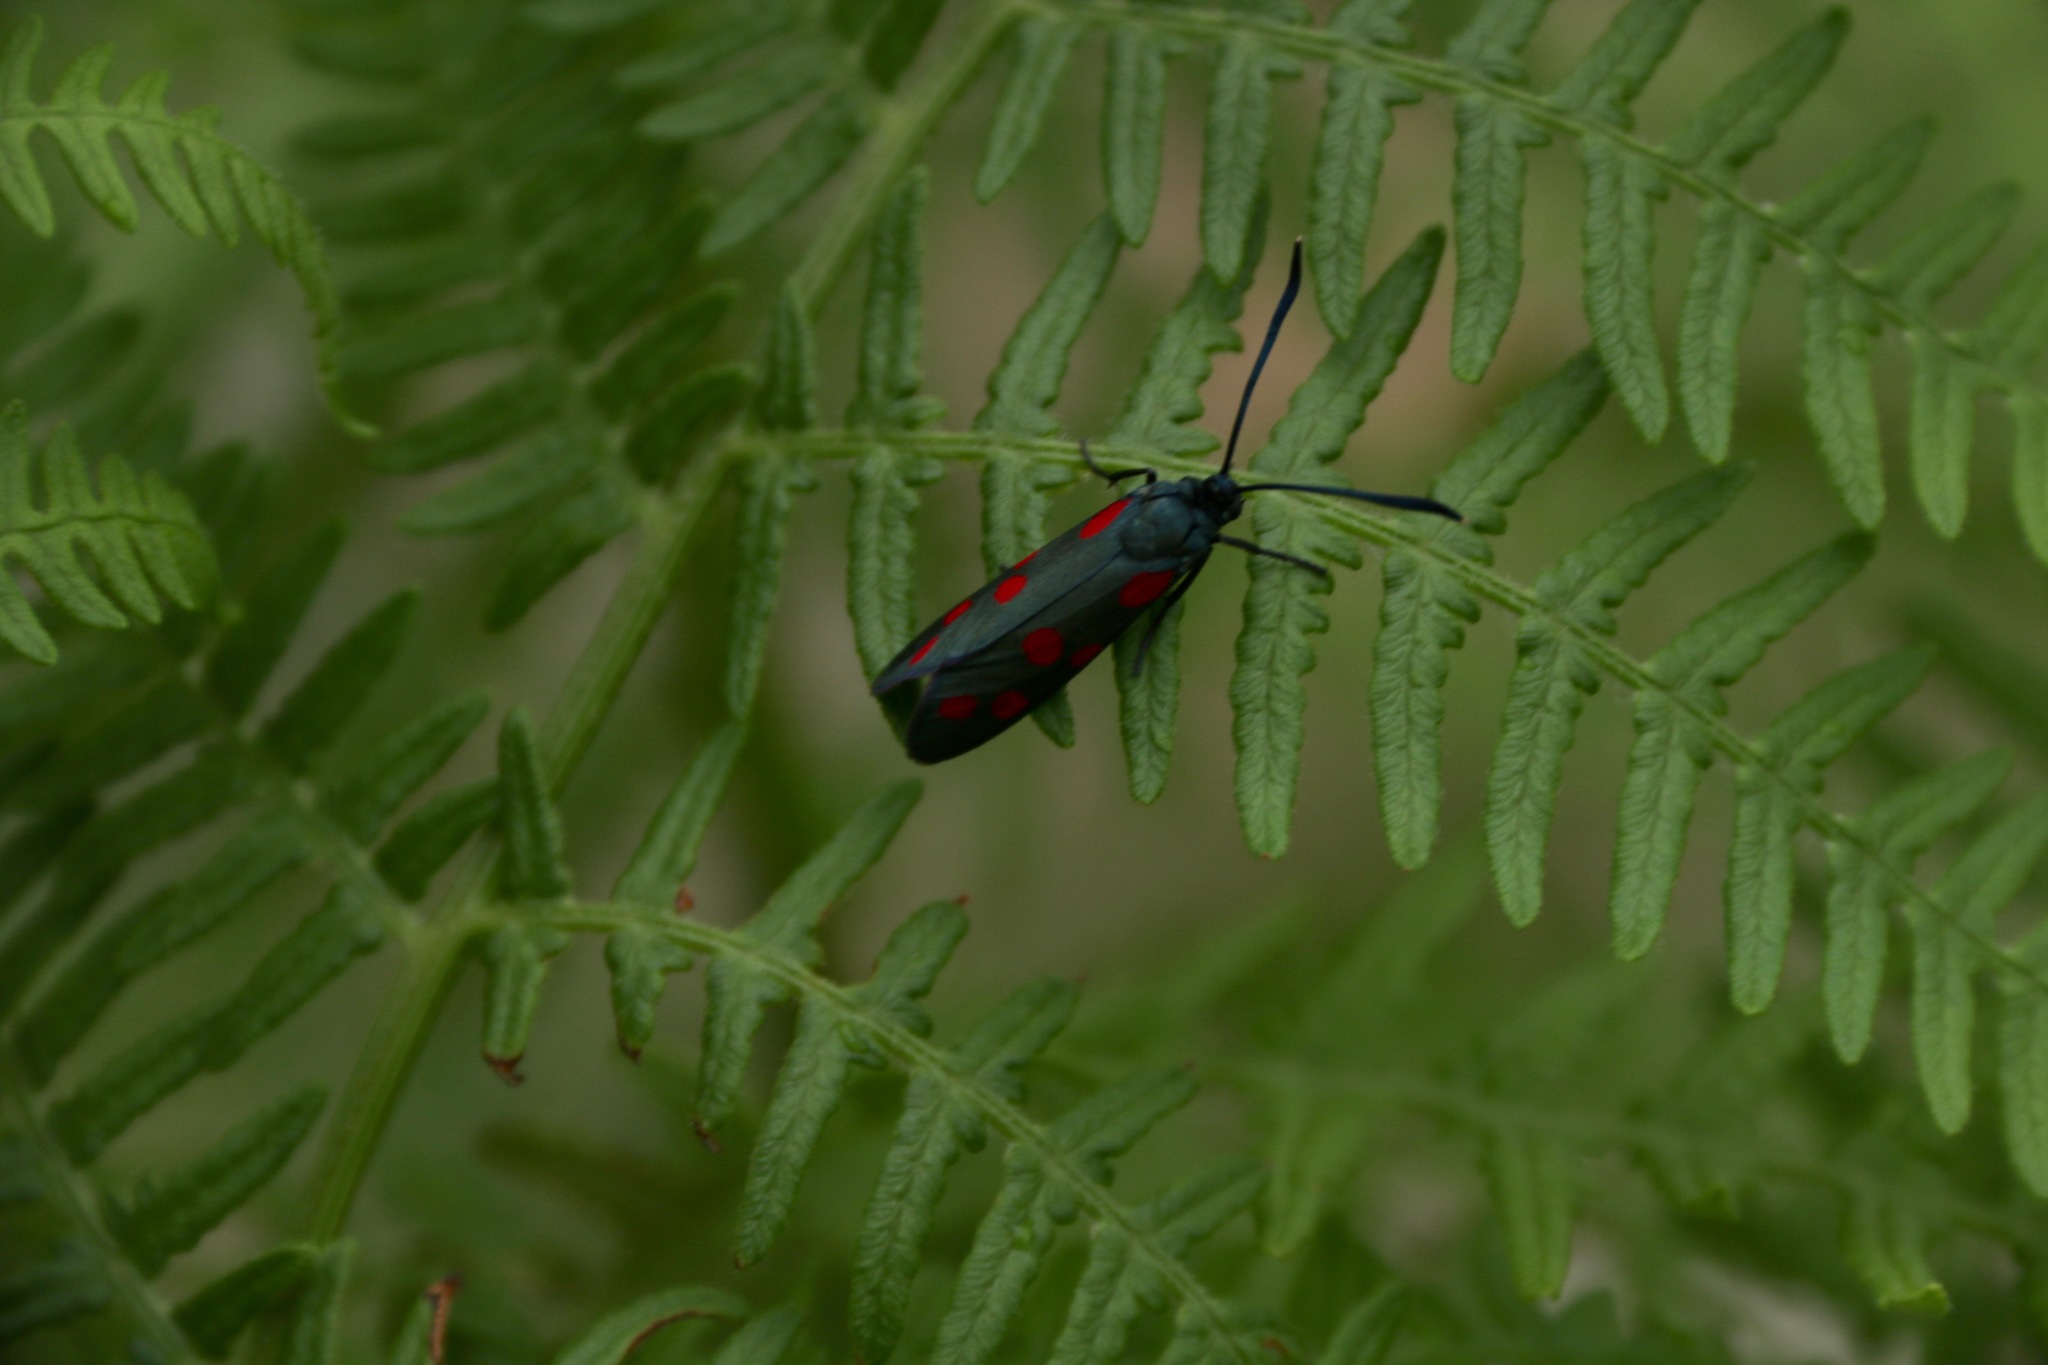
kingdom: Animalia
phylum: Arthropoda
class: Insecta
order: Lepidoptera
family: Zygaenidae
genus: Zygaena
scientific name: Zygaena dorycnii
